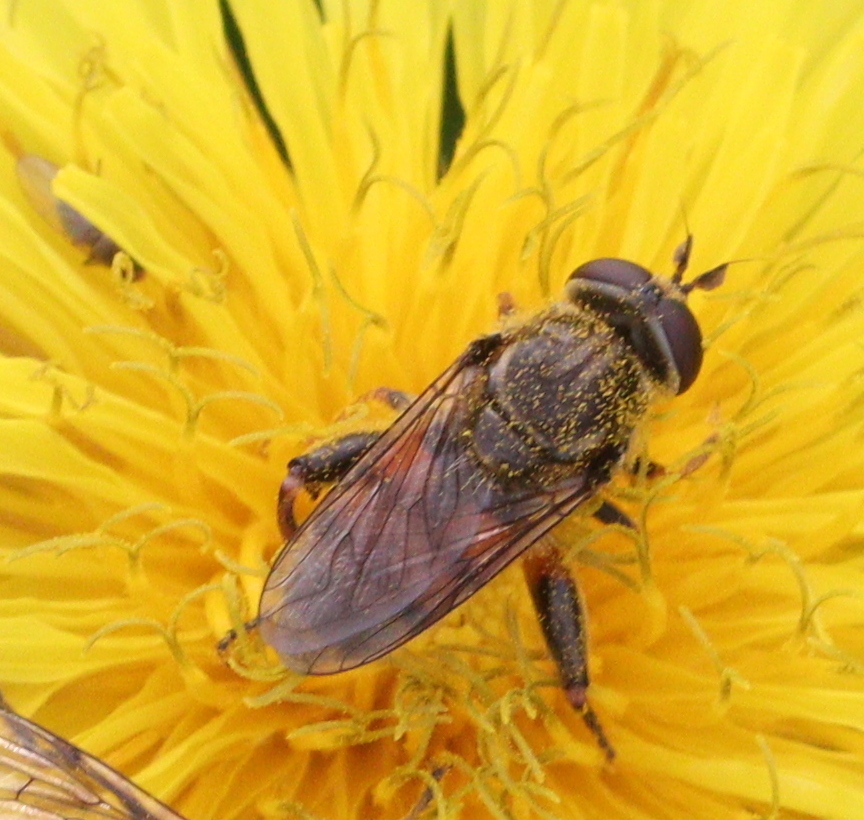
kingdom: Animalia
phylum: Arthropoda
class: Insecta
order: Diptera
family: Syrphidae
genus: Tropidia
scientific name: Tropidia fasciata
